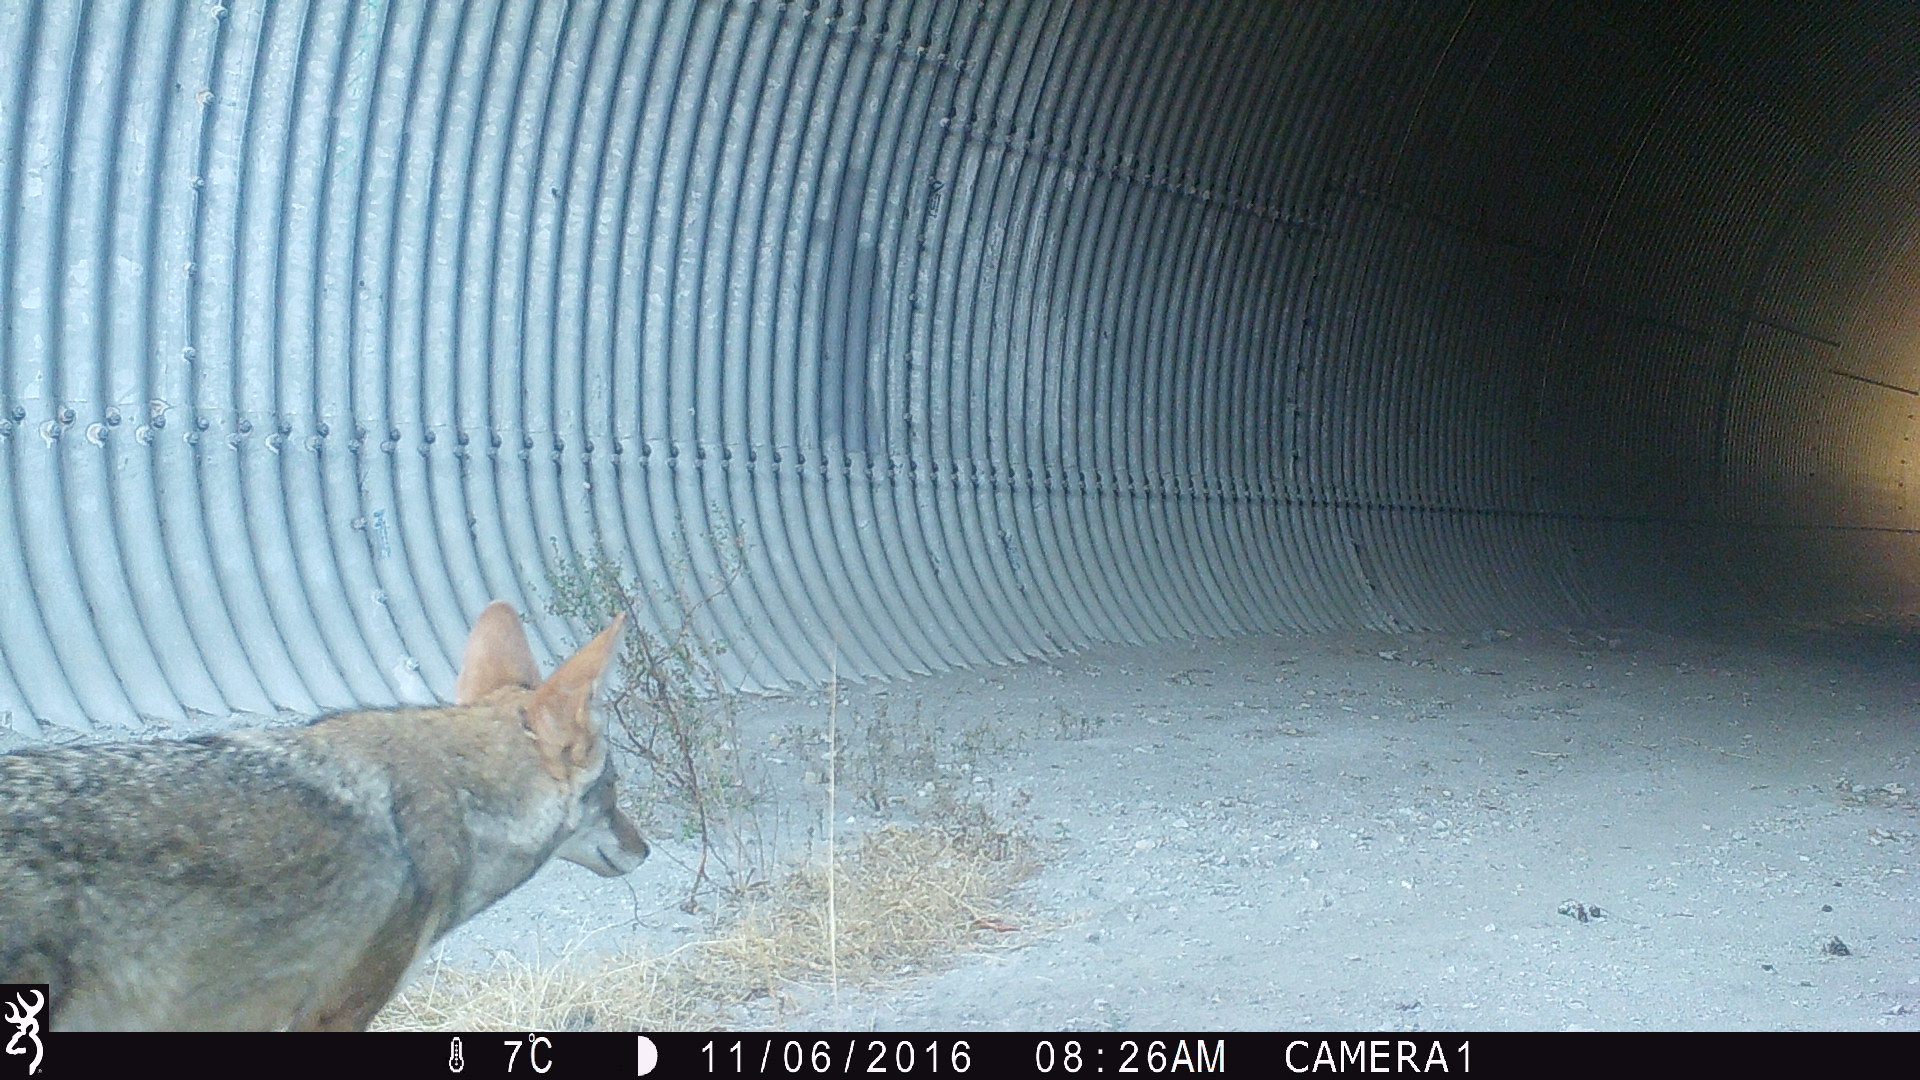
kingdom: Animalia
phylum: Chordata
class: Mammalia
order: Carnivora
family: Canidae
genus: Canis
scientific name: Canis latrans
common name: Coyote
